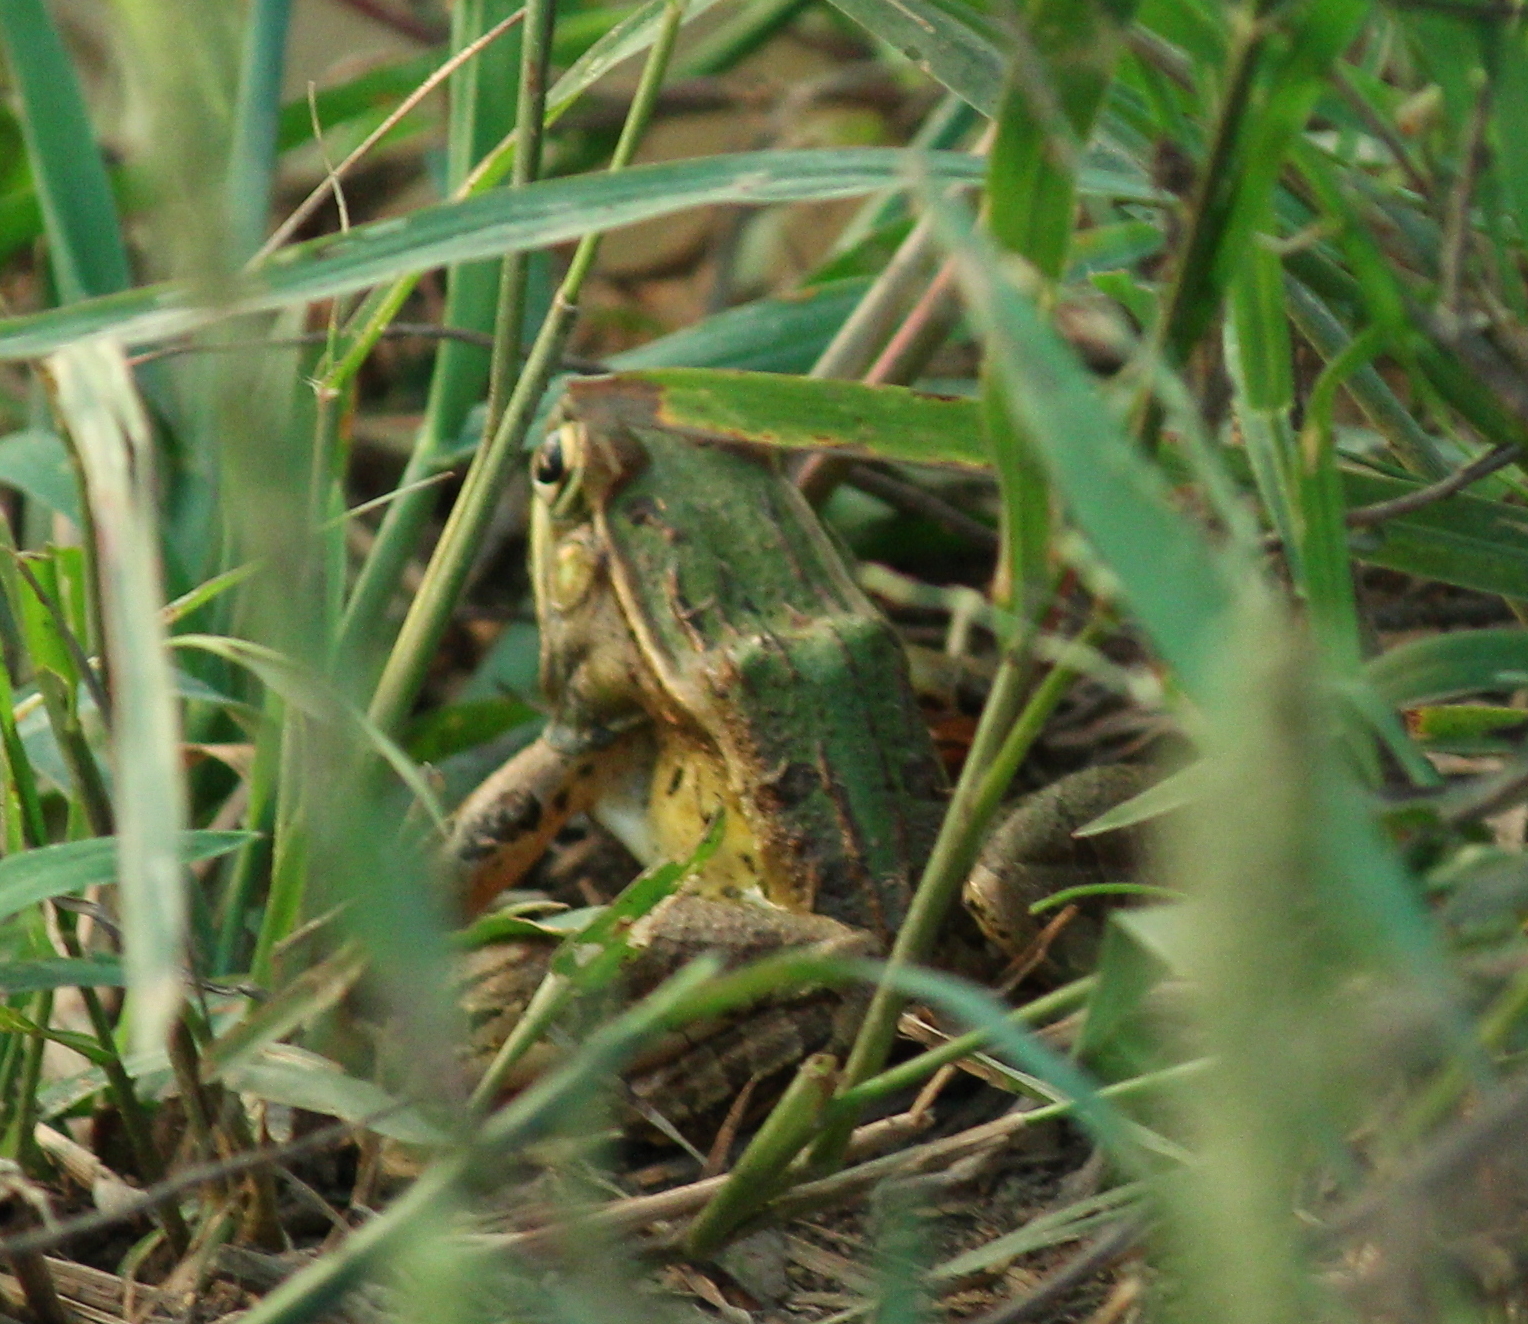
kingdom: Animalia
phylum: Chordata
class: Amphibia
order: Anura
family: Ranidae
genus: Lithobates
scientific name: Lithobates sphenocephalus
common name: Southern leopard frog
